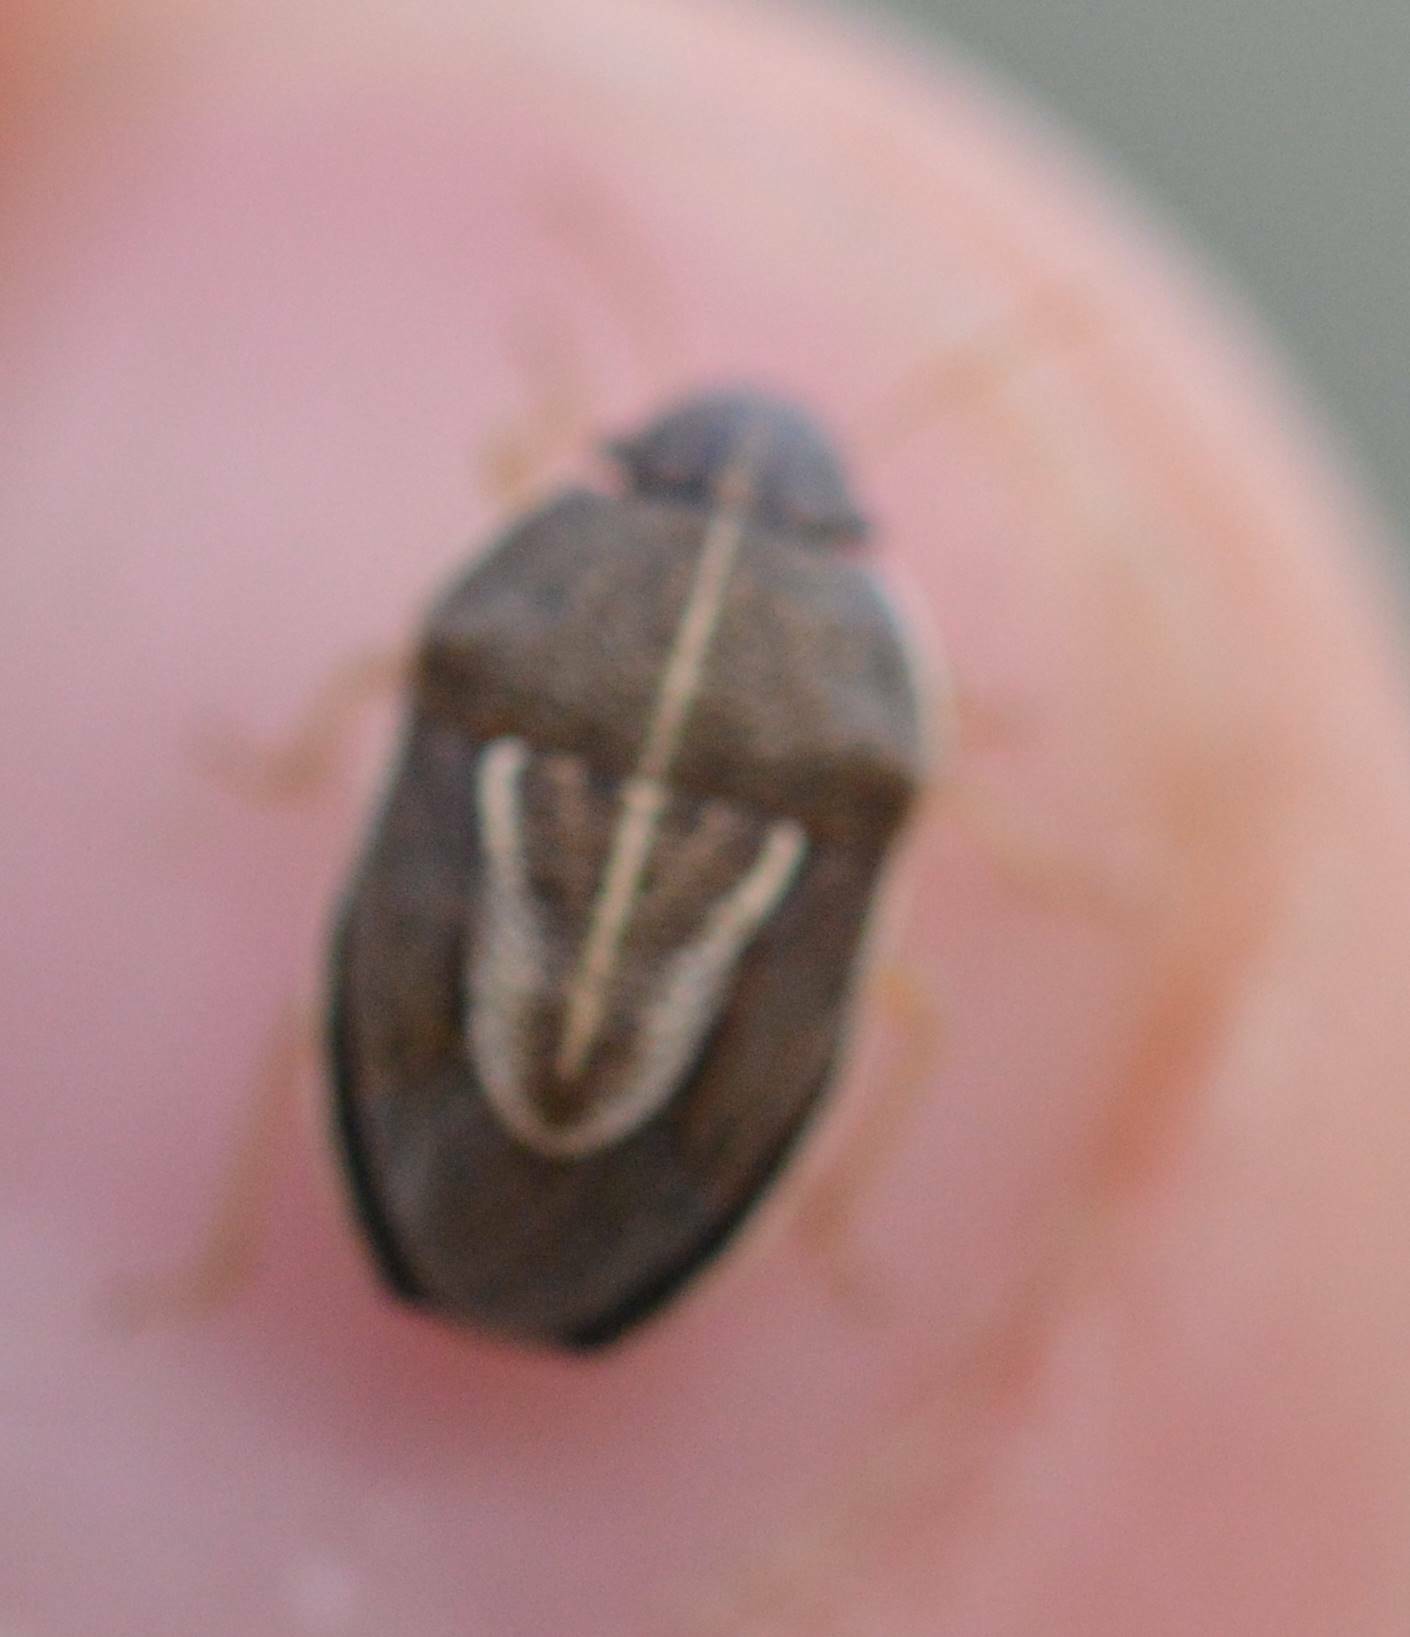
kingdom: Animalia
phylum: Arthropoda
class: Insecta
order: Hemiptera
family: Pentatomidae
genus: Neottiglossa
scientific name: Neottiglossa flavomarginata
